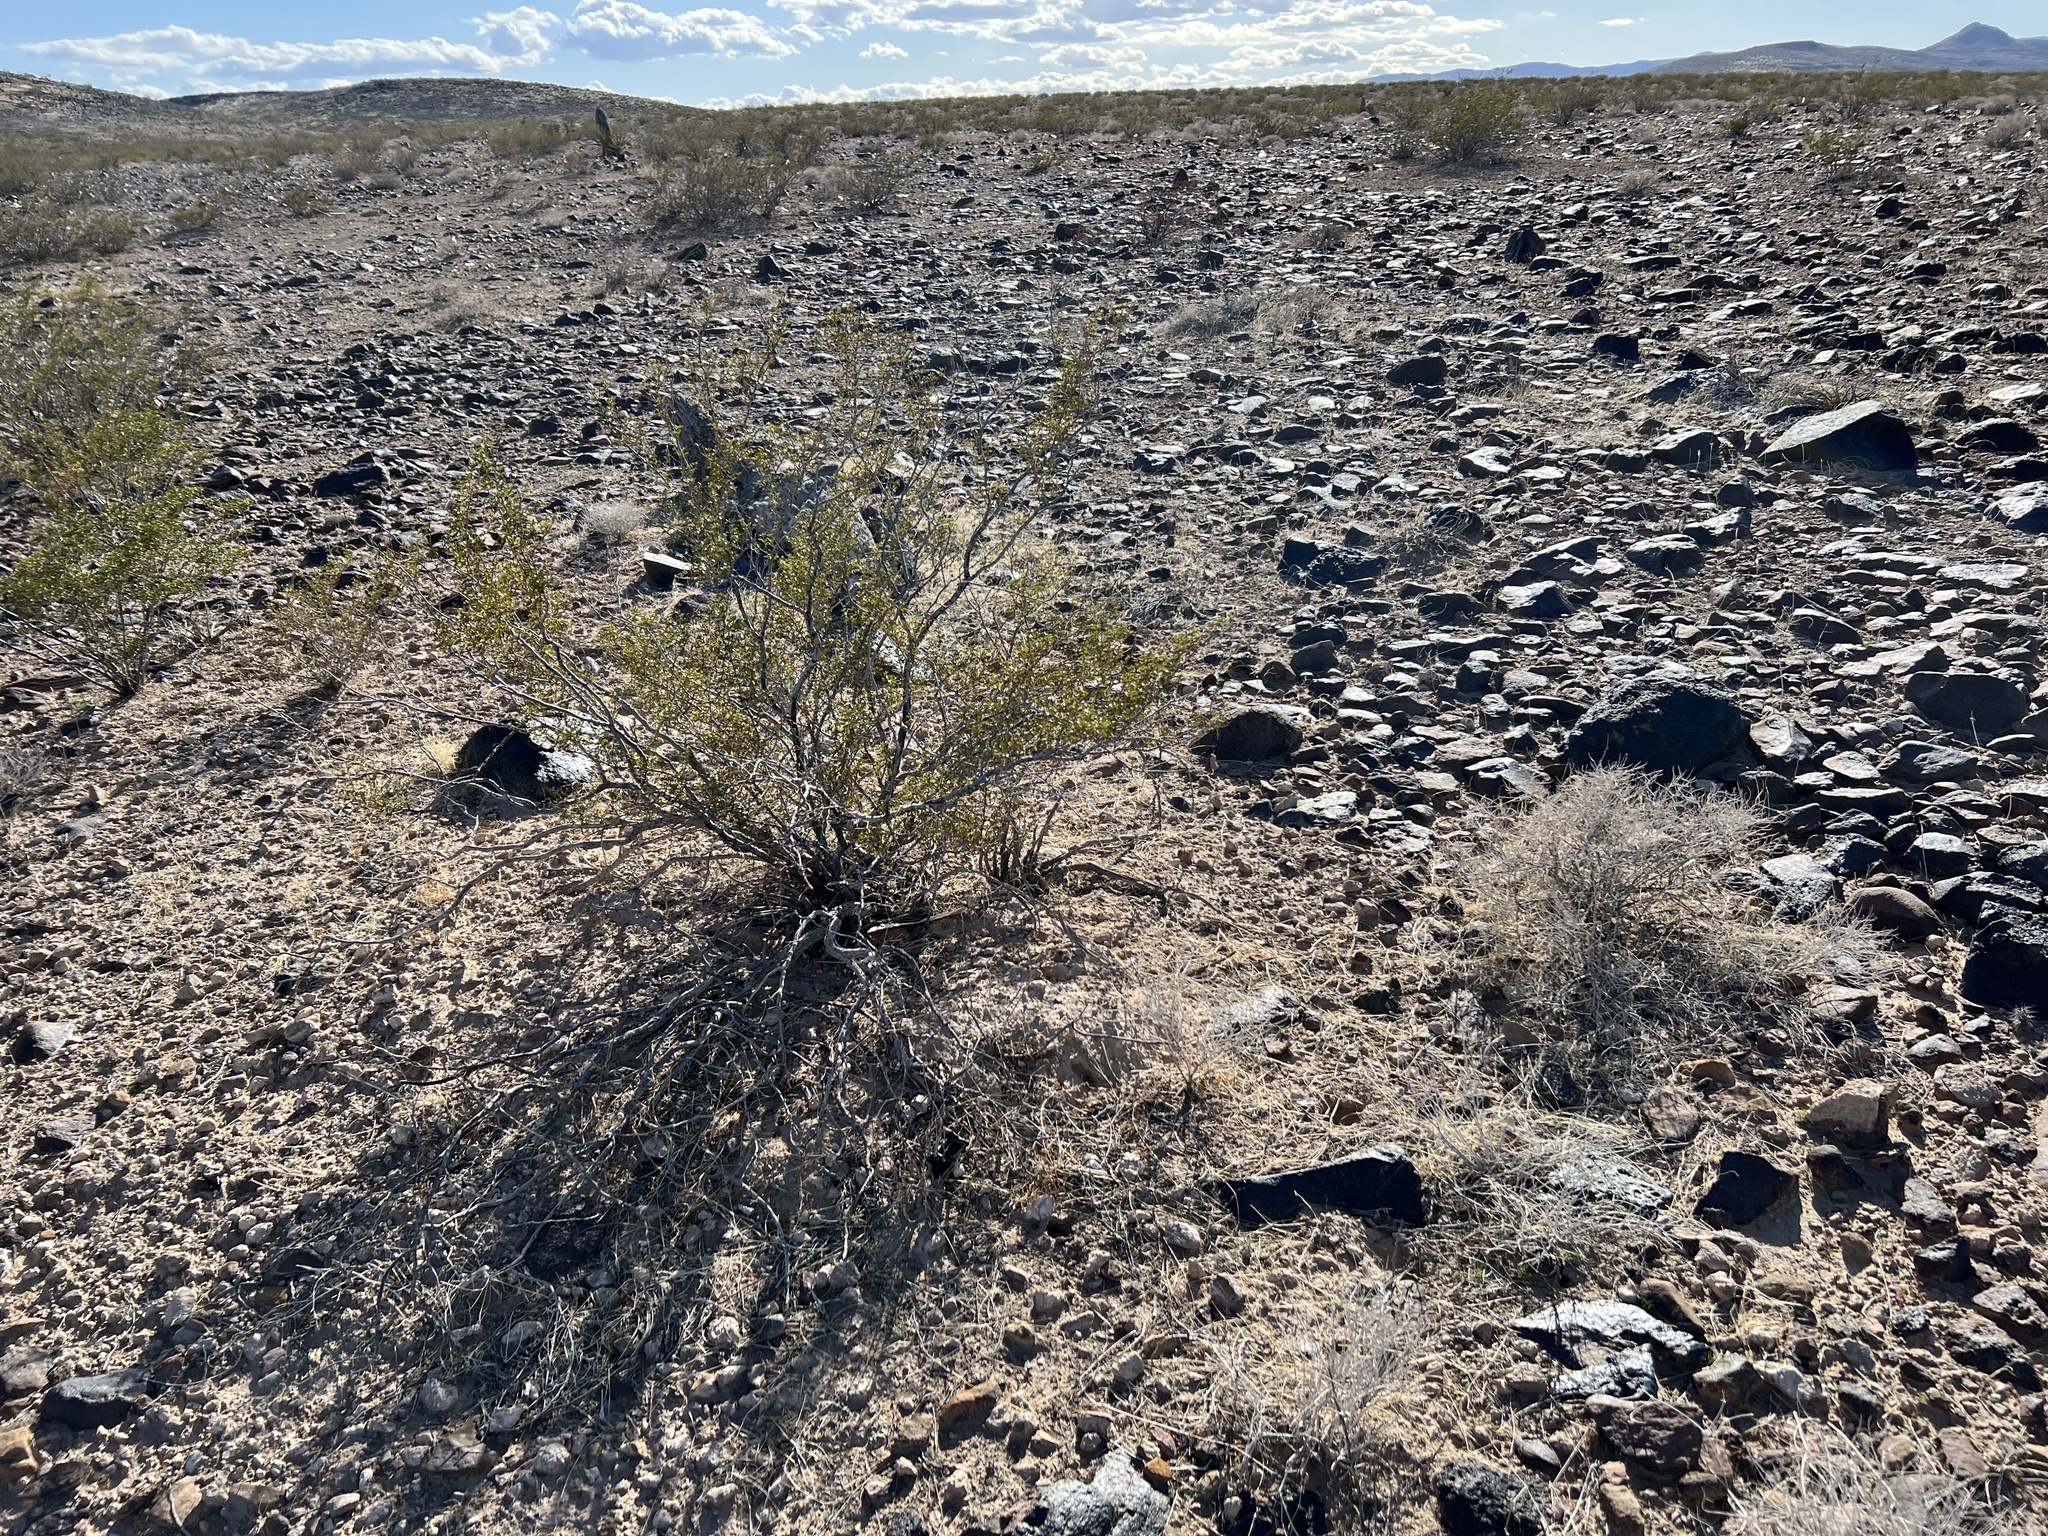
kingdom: Plantae
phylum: Tracheophyta
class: Magnoliopsida
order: Zygophyllales
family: Zygophyllaceae
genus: Larrea
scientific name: Larrea tridentata
